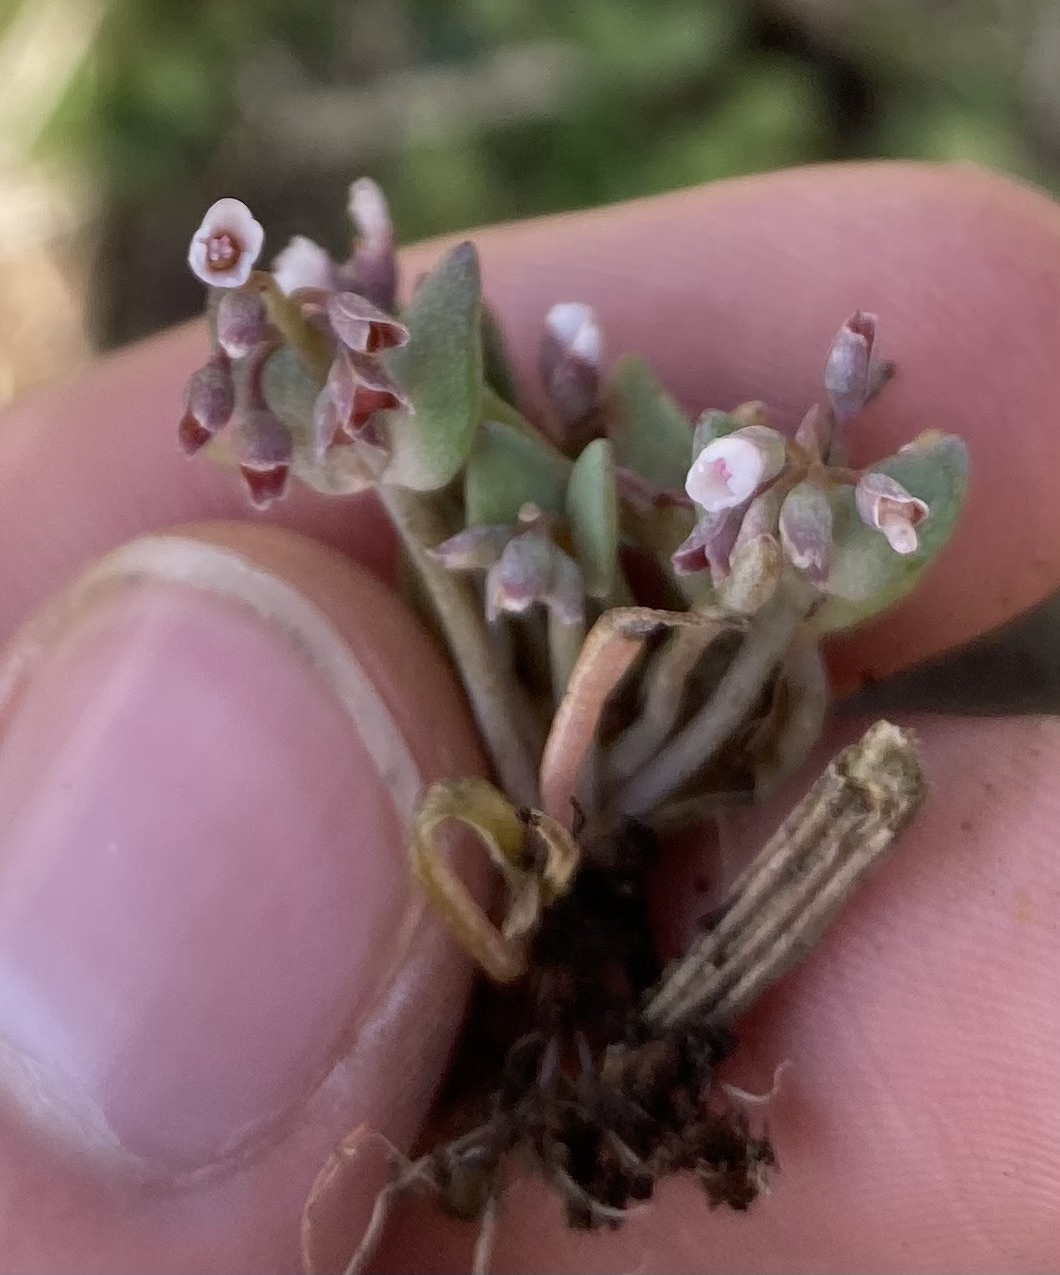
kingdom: Plantae
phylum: Tracheophyta
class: Magnoliopsida
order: Caryophyllales
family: Montiaceae
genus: Claytonia
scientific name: Claytonia exigua
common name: Pale spring beauty
